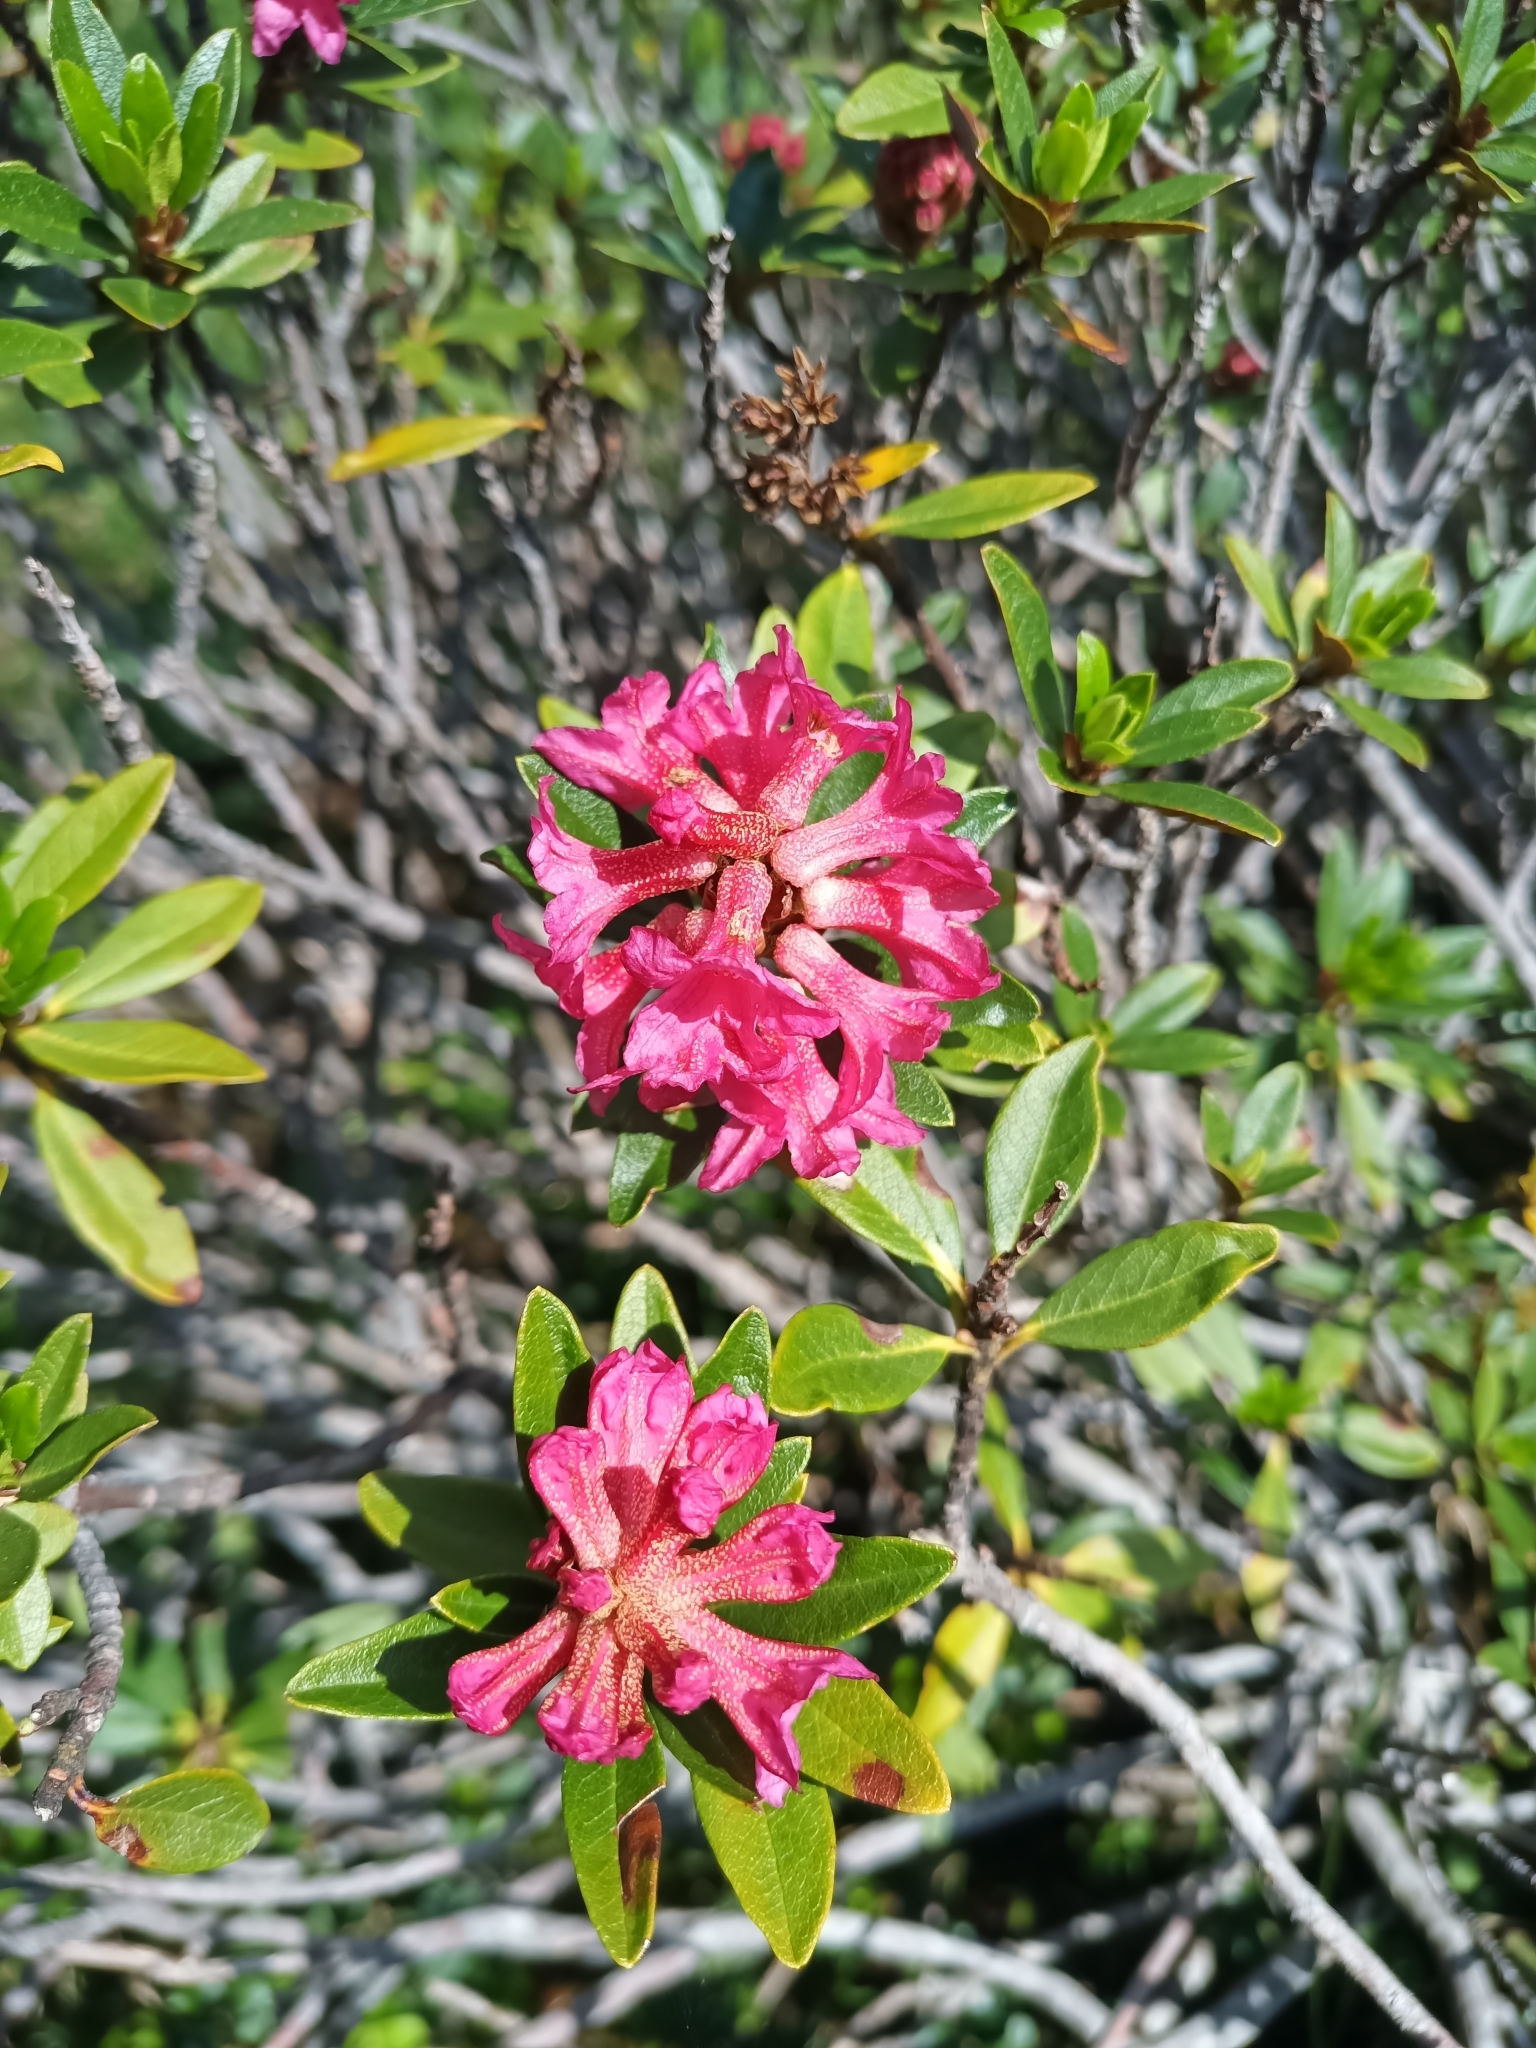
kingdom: Plantae
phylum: Tracheophyta
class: Magnoliopsida
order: Ericales
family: Ericaceae
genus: Rhododendron
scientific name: Rhododendron ferrugineum
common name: Alpenrose
